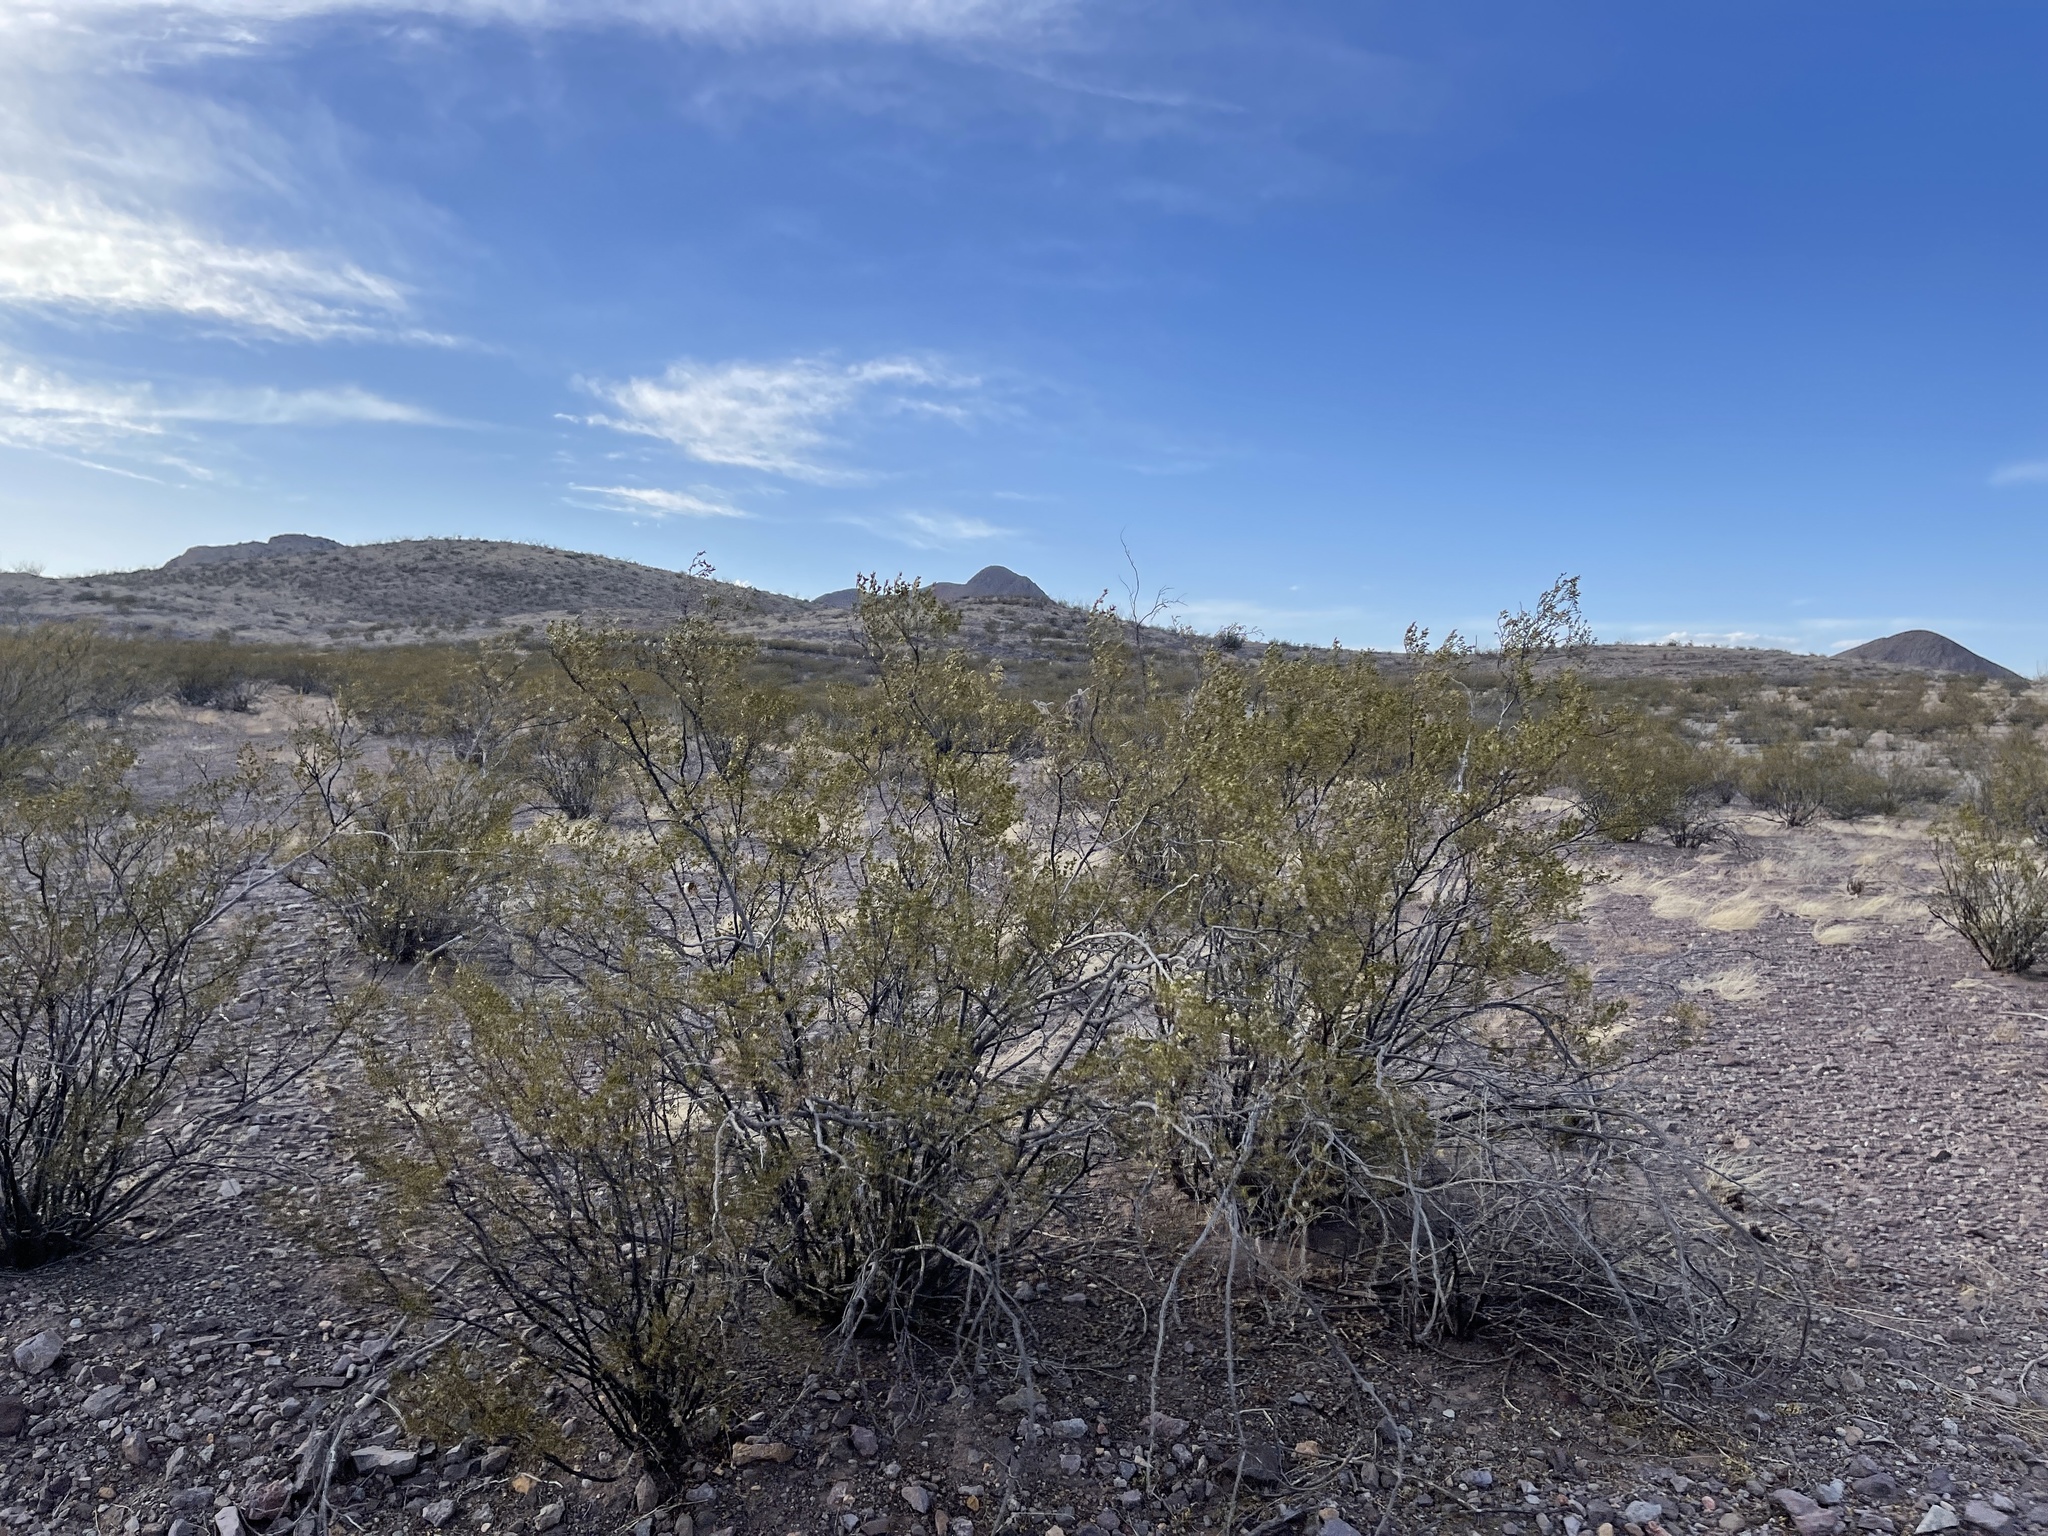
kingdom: Plantae
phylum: Tracheophyta
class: Magnoliopsida
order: Zygophyllales
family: Zygophyllaceae
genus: Larrea
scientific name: Larrea tridentata
